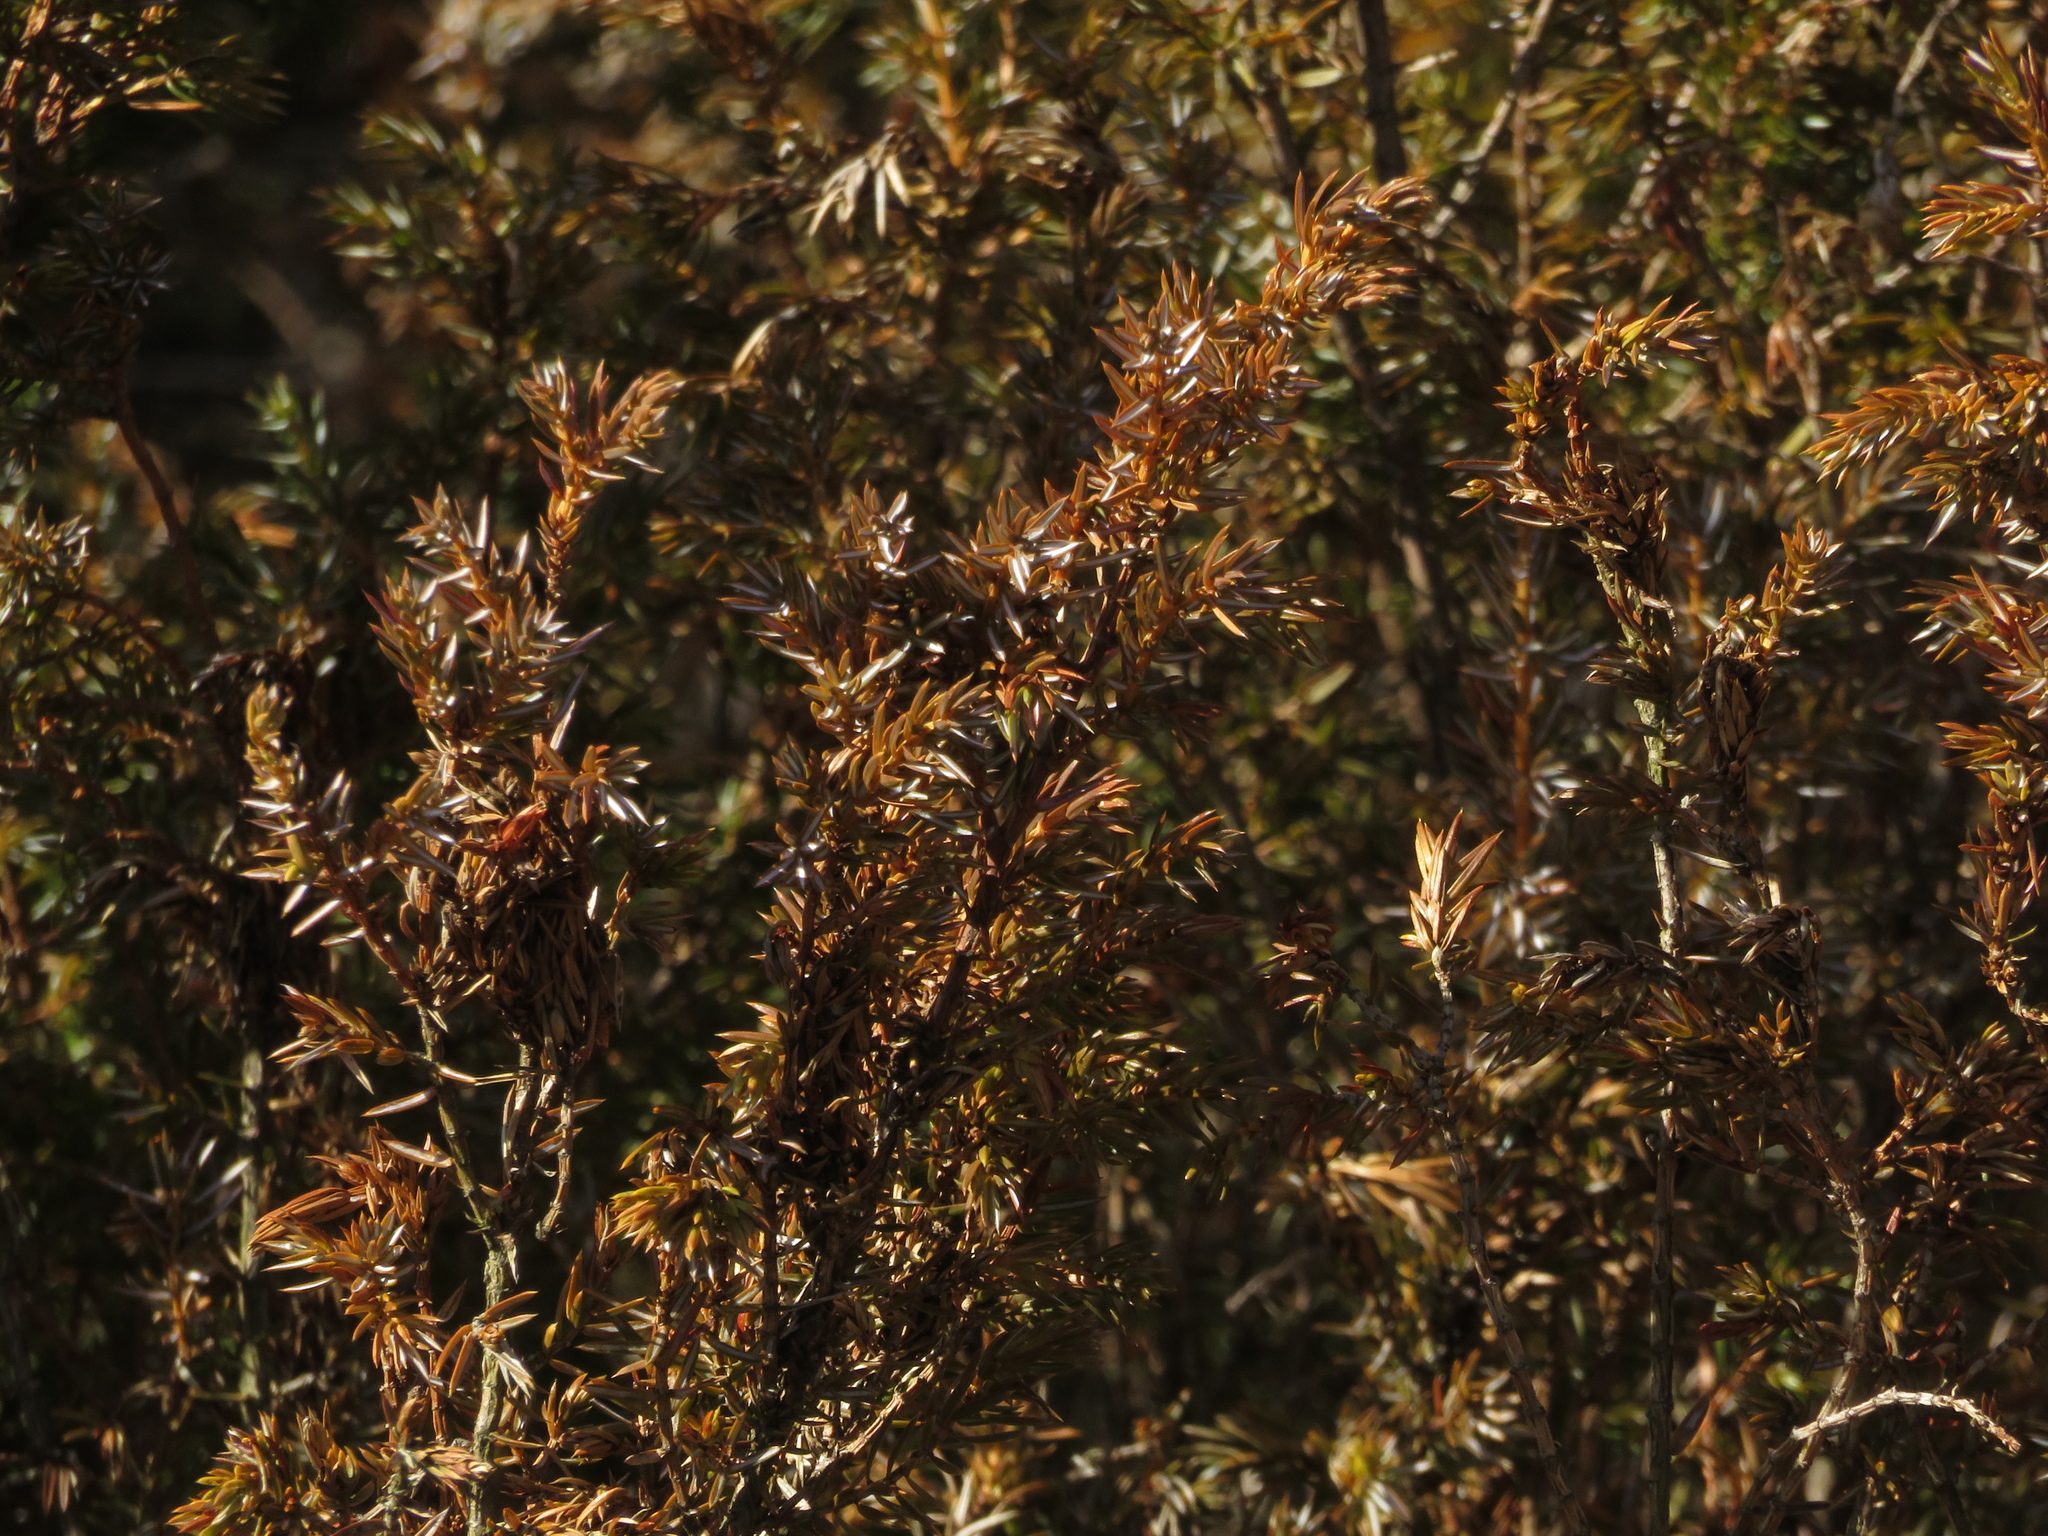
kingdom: Plantae
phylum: Tracheophyta
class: Pinopsida
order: Pinales
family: Cupressaceae
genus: Juniperus
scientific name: Juniperus communis
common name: Common juniper
